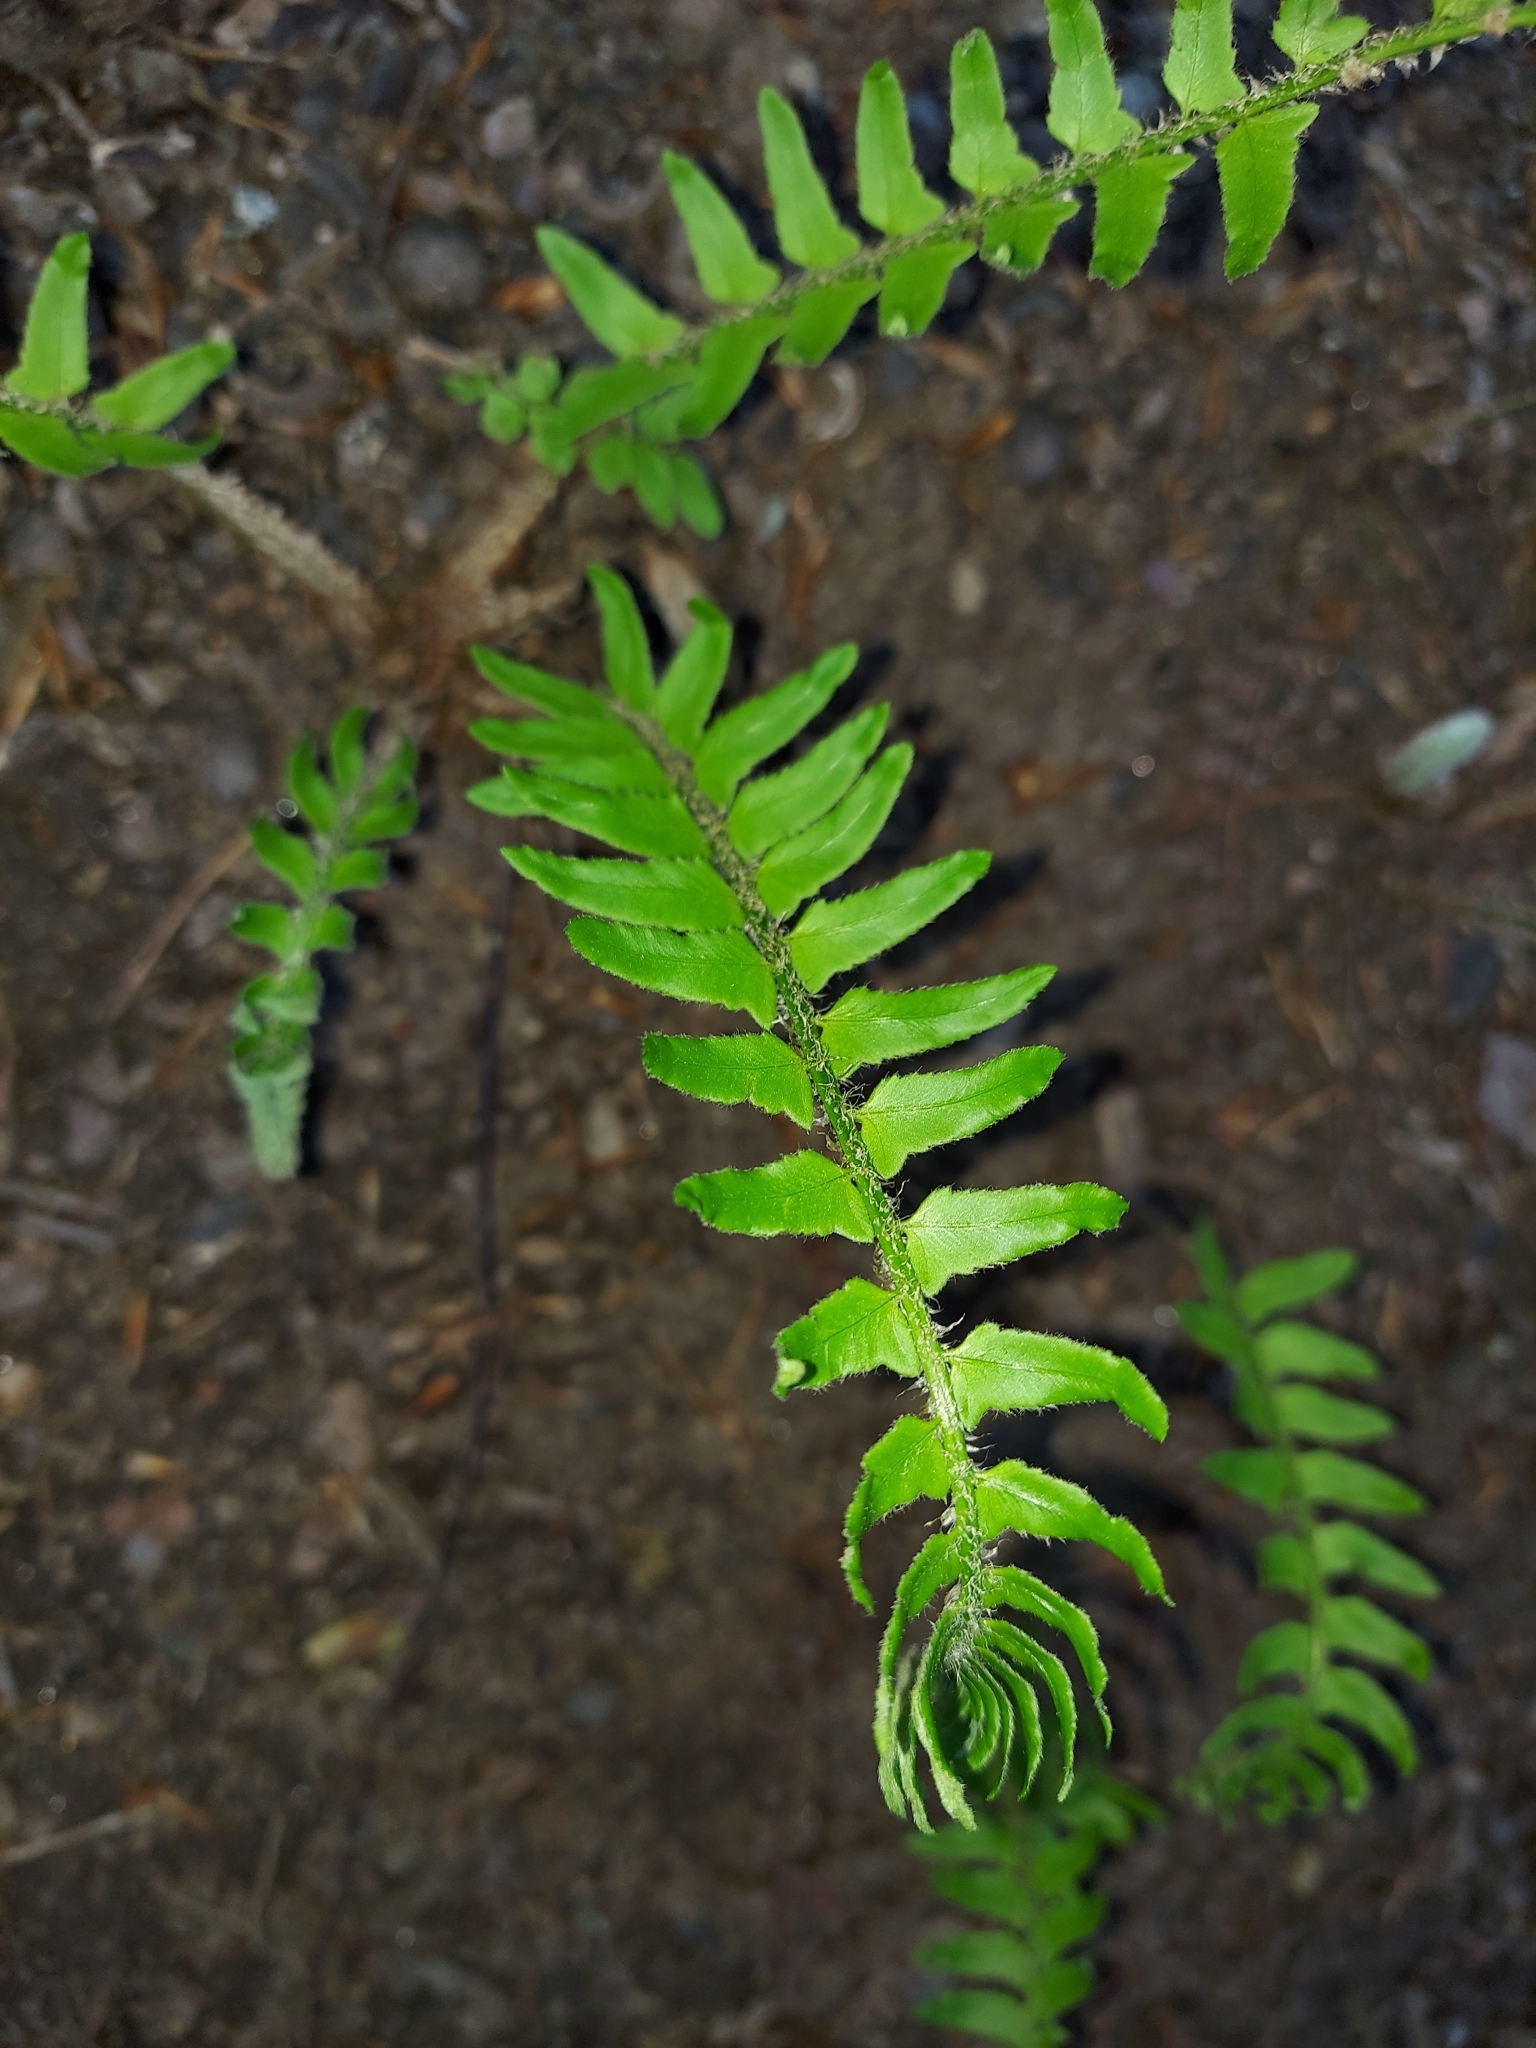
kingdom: Plantae
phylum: Tracheophyta
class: Polypodiopsida
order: Polypodiales
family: Dryopteridaceae
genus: Polystichum
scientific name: Polystichum acrostichoides
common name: Christmas fern
